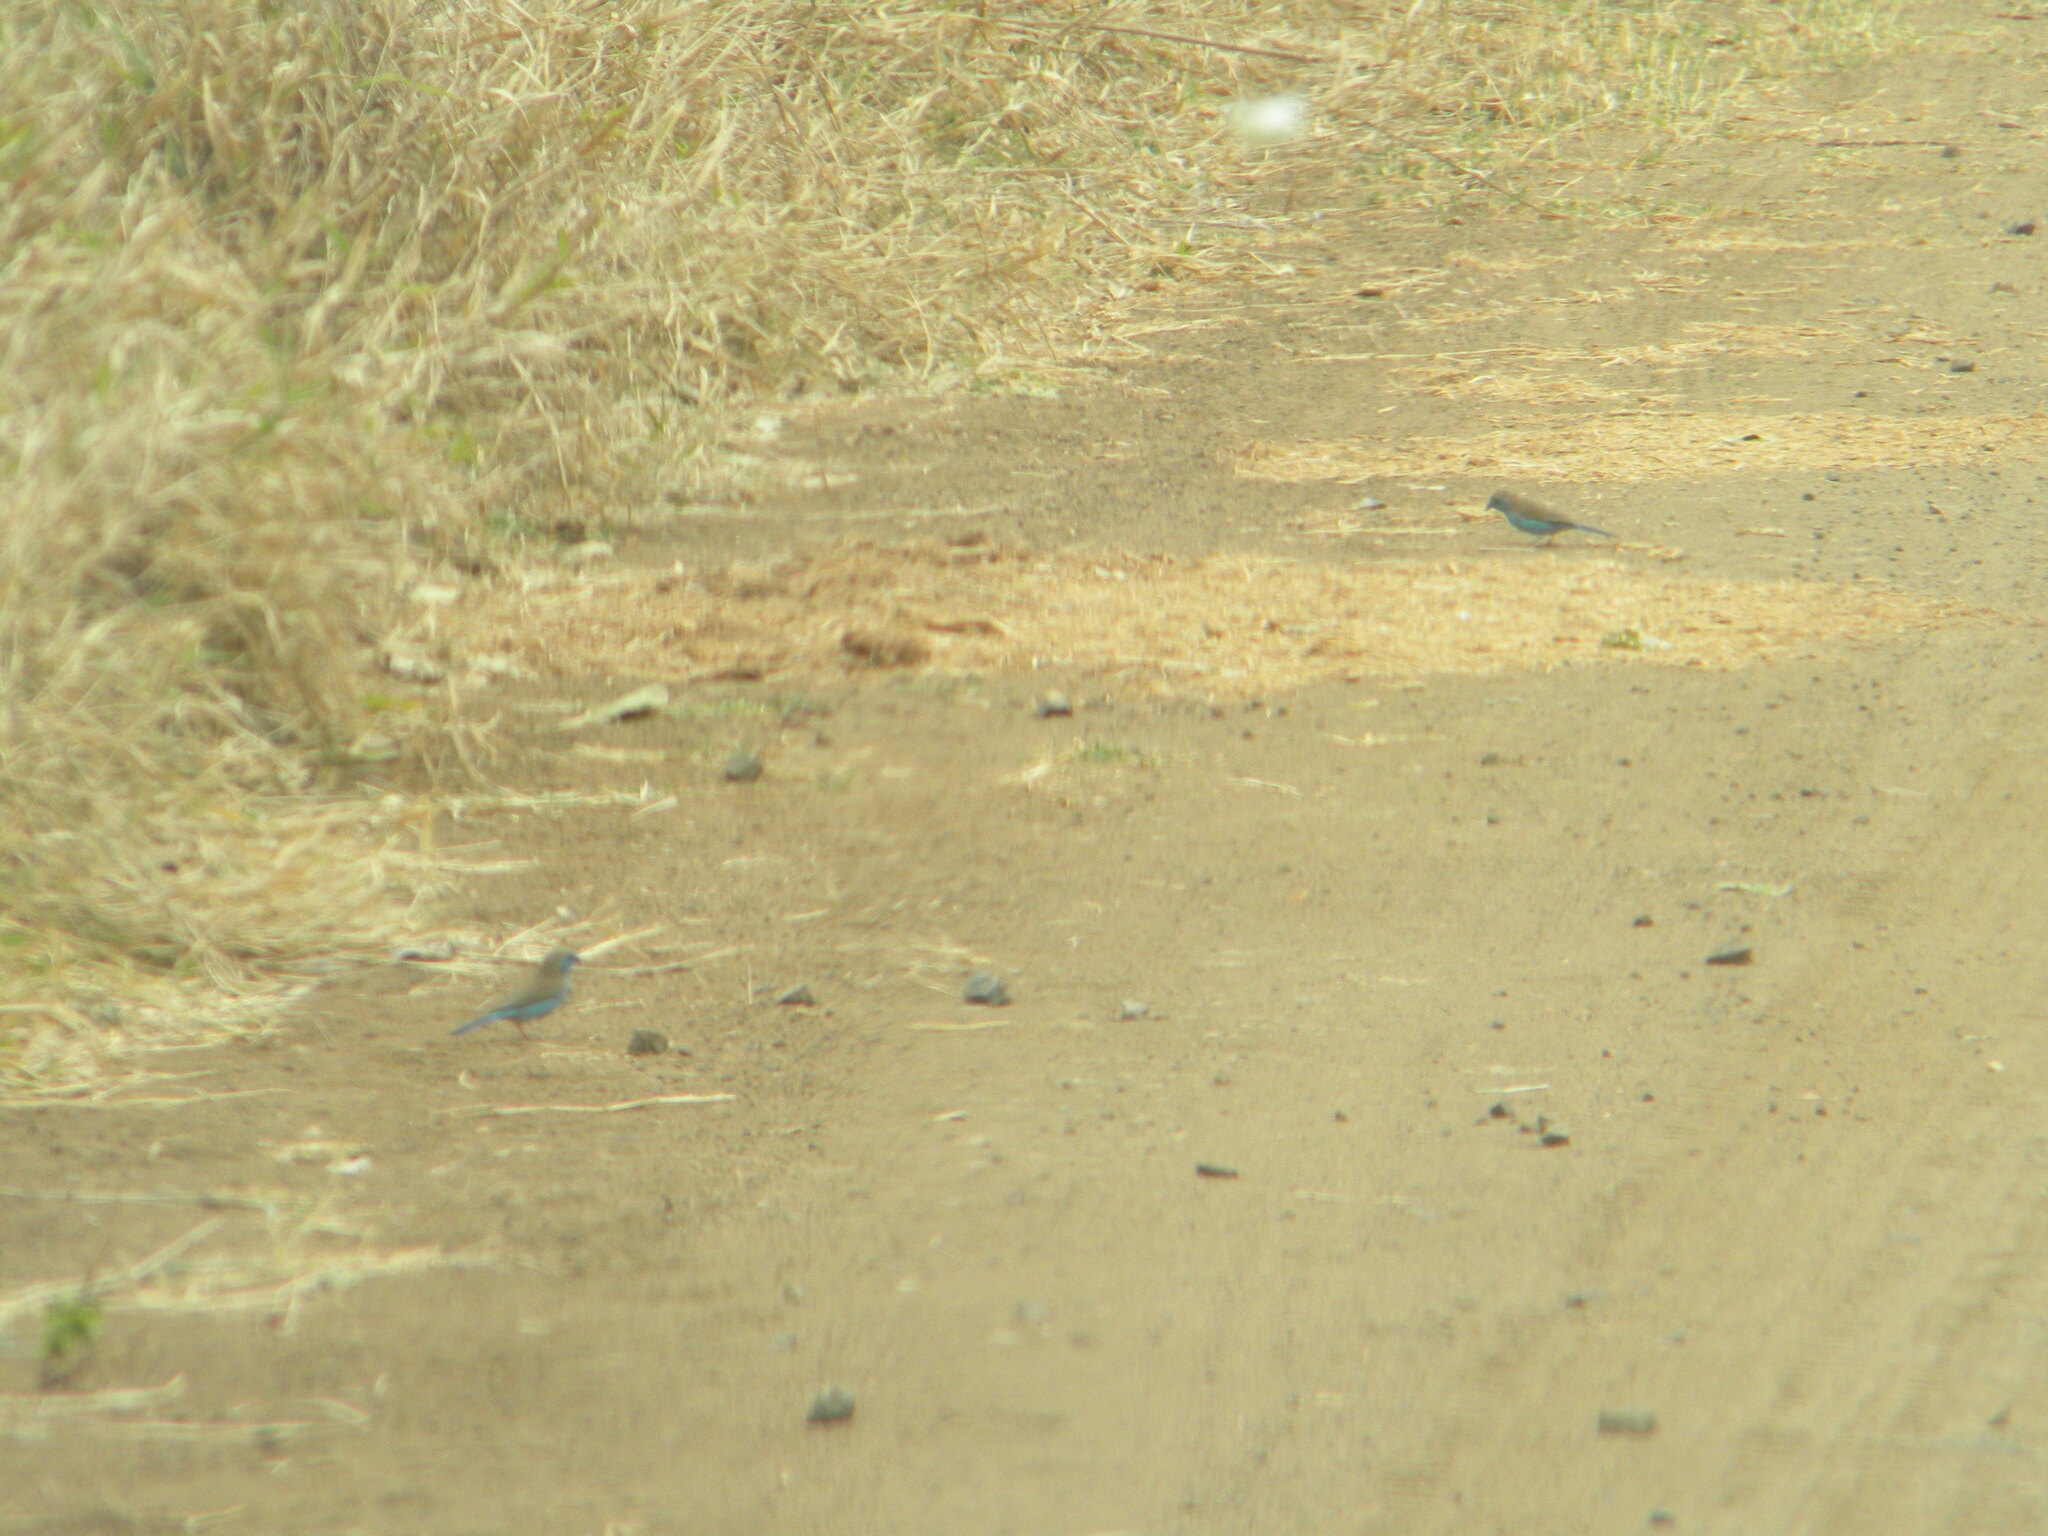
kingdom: Animalia
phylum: Chordata
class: Aves
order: Passeriformes
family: Estrildidae
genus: Uraeginthus
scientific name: Uraeginthus angolensis
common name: Blue waxbill
